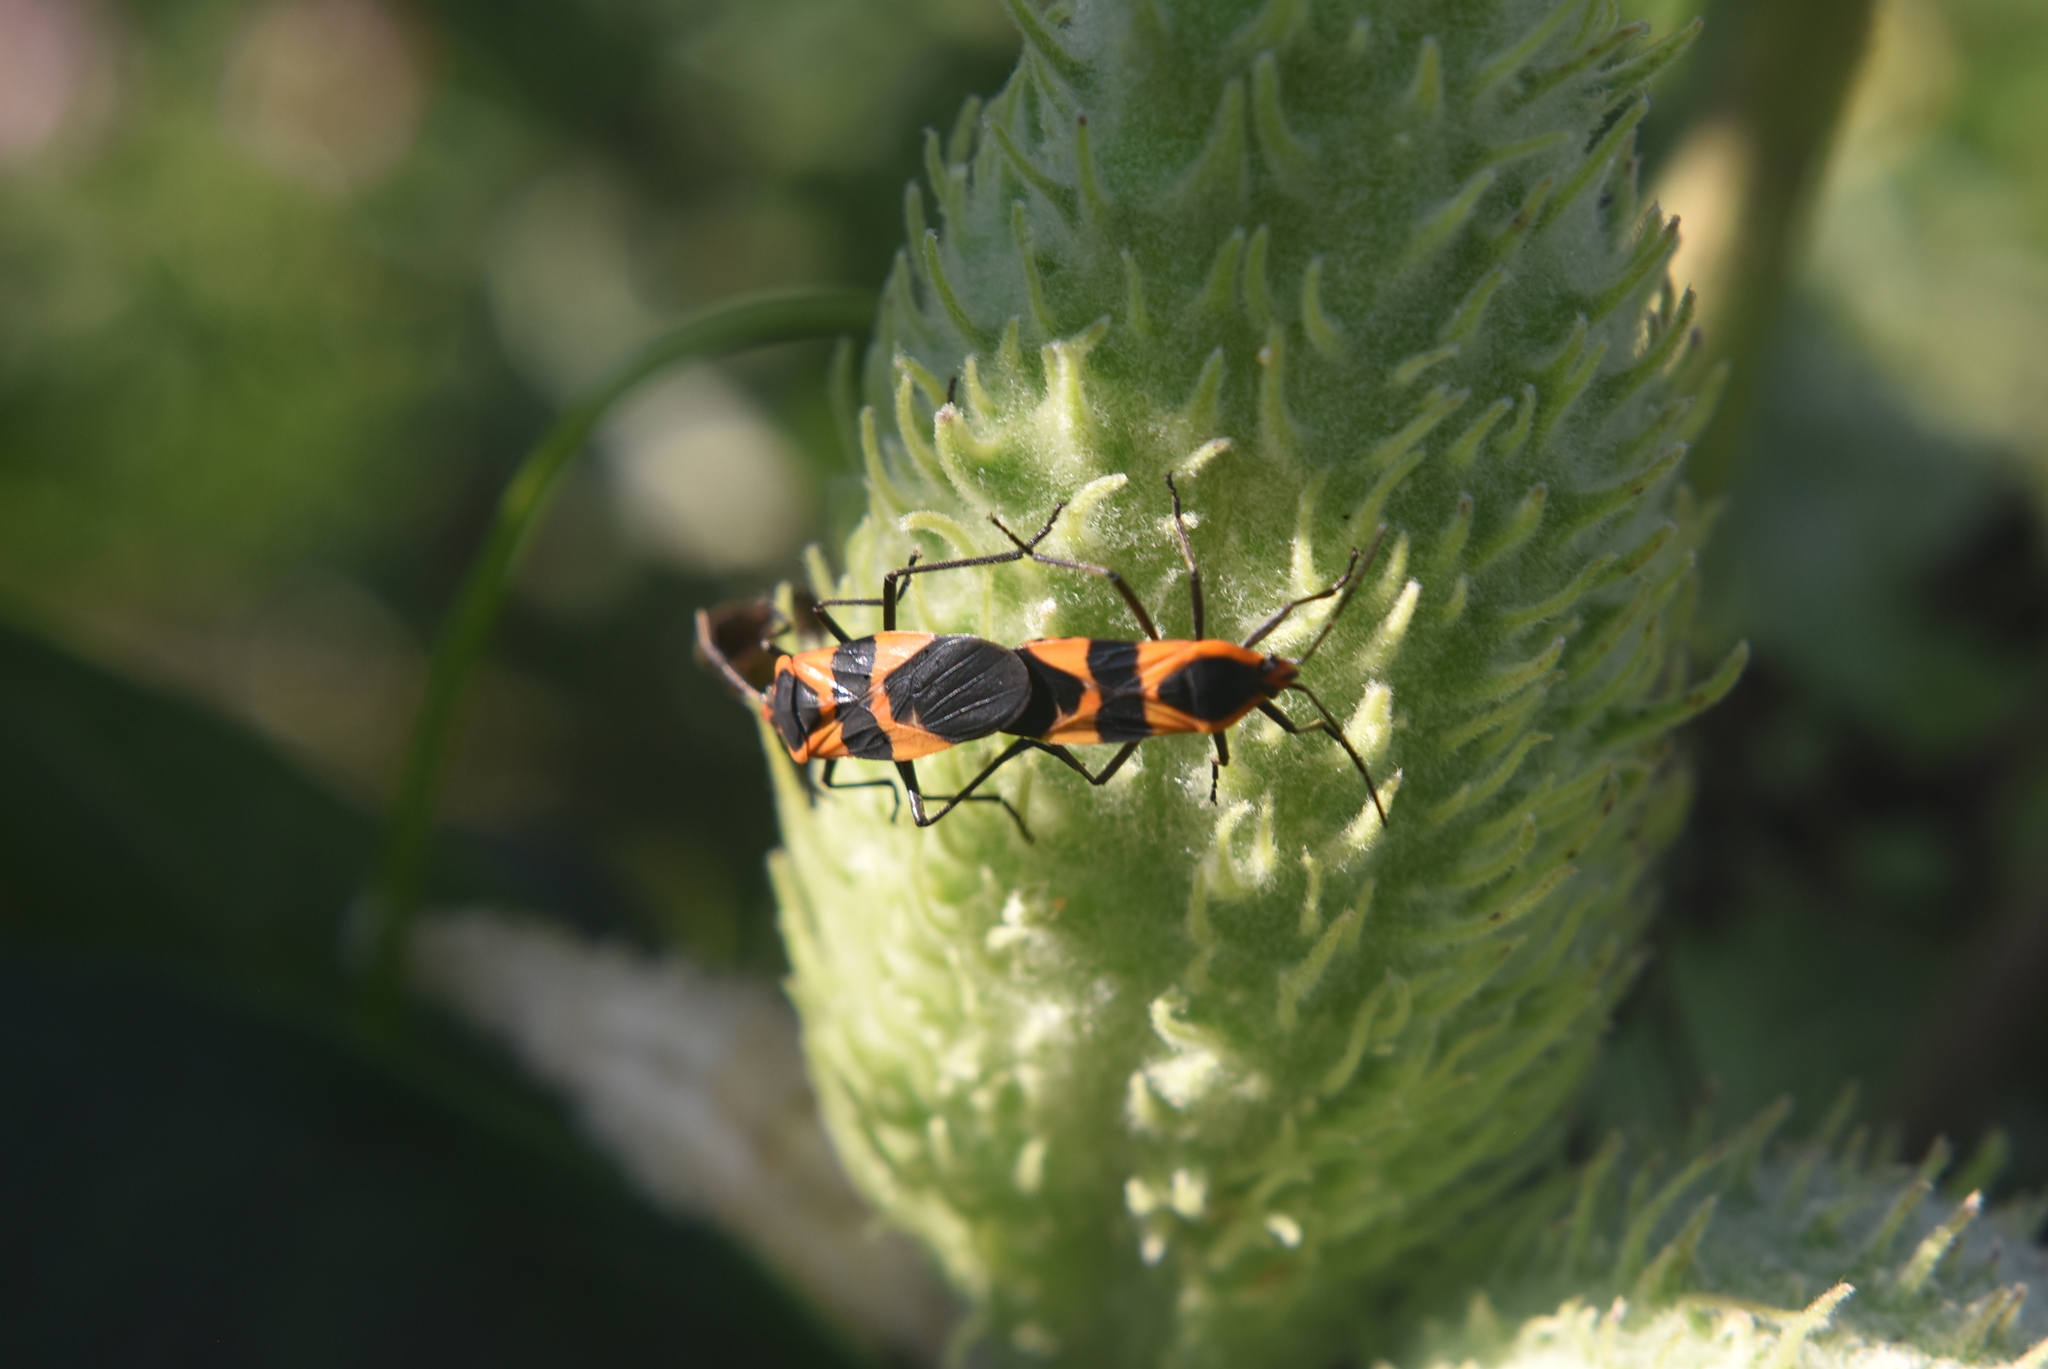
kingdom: Animalia
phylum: Arthropoda
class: Insecta
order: Hemiptera
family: Lygaeidae
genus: Oncopeltus
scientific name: Oncopeltus fasciatus
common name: Large milkweed bug
